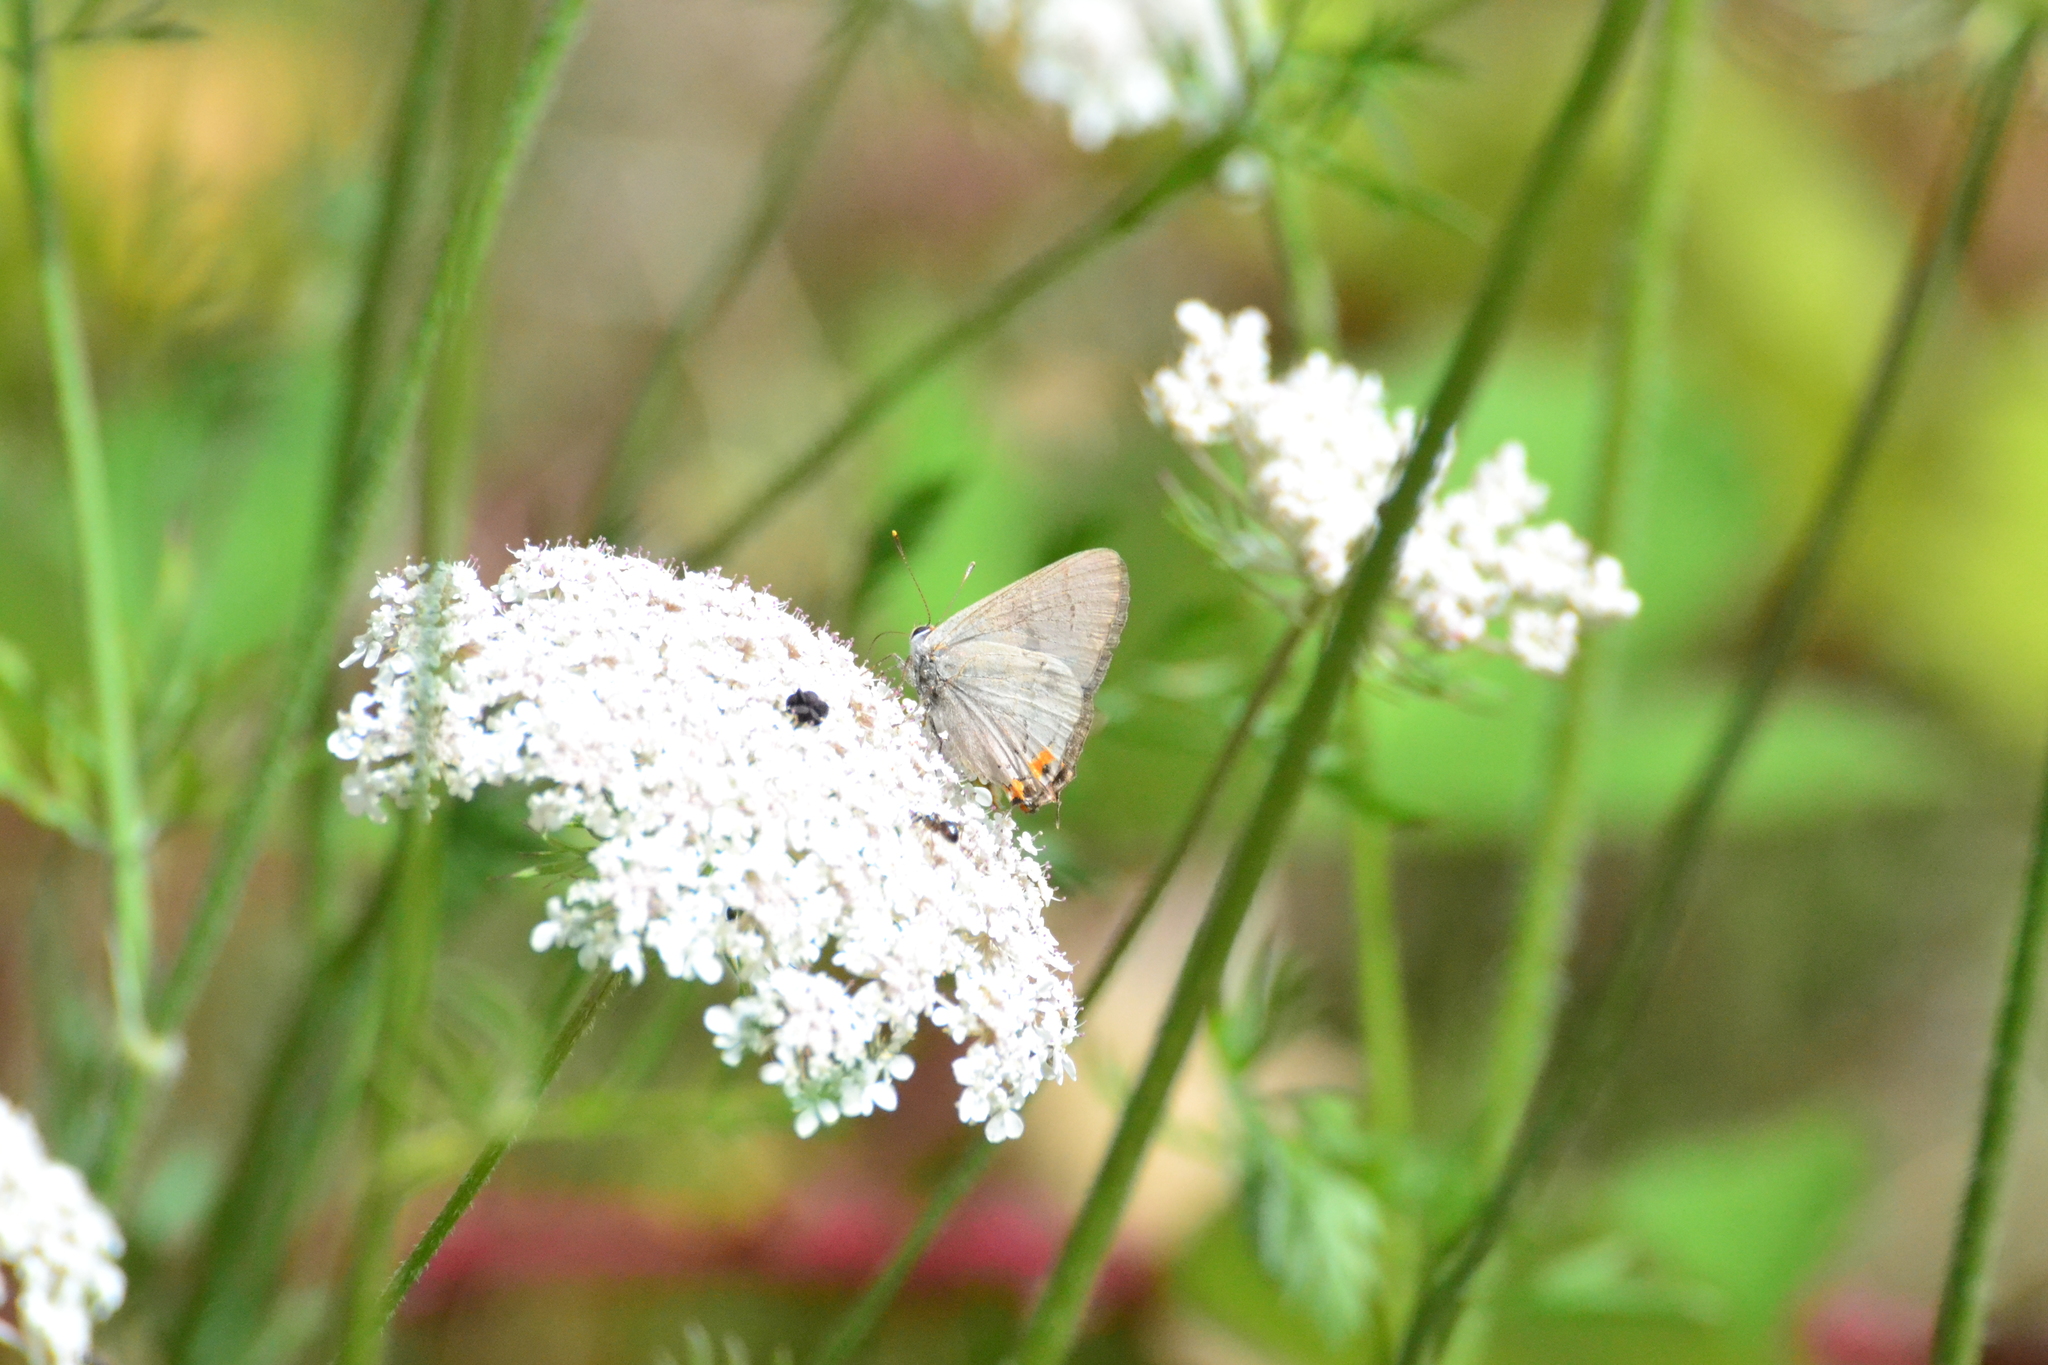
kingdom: Animalia
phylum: Arthropoda
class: Insecta
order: Lepidoptera
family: Lycaenidae
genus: Strymon
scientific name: Strymon melinus
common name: Gray hairstreak
